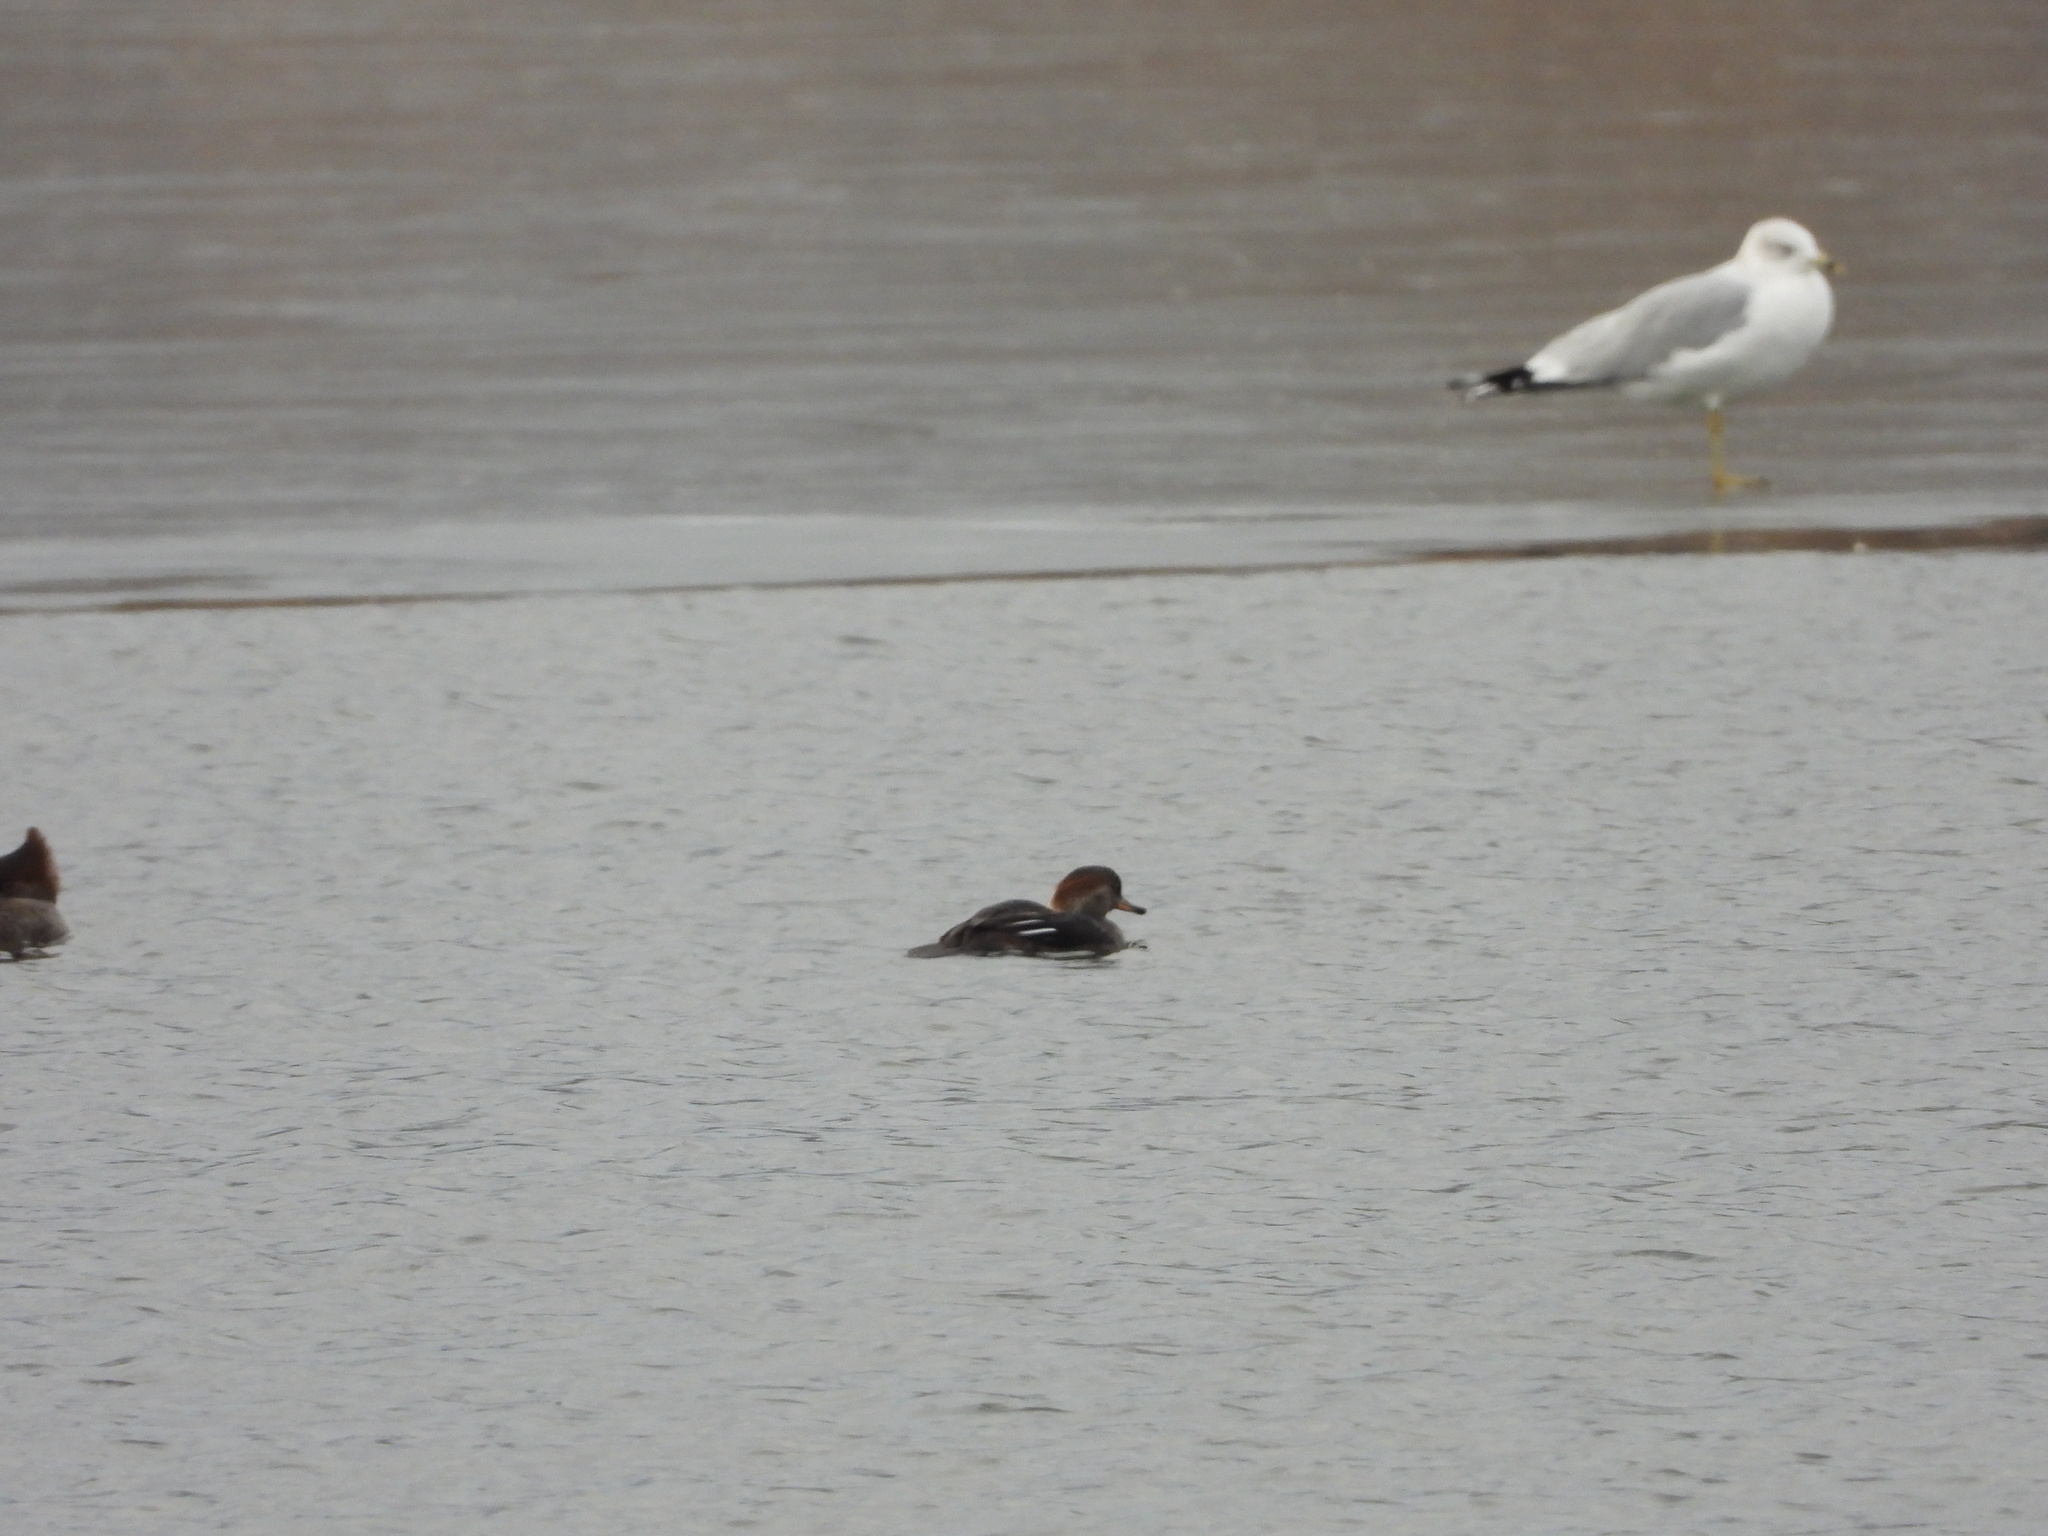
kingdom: Animalia
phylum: Chordata
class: Aves
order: Anseriformes
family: Anatidae
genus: Lophodytes
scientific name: Lophodytes cucullatus
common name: Hooded merganser
